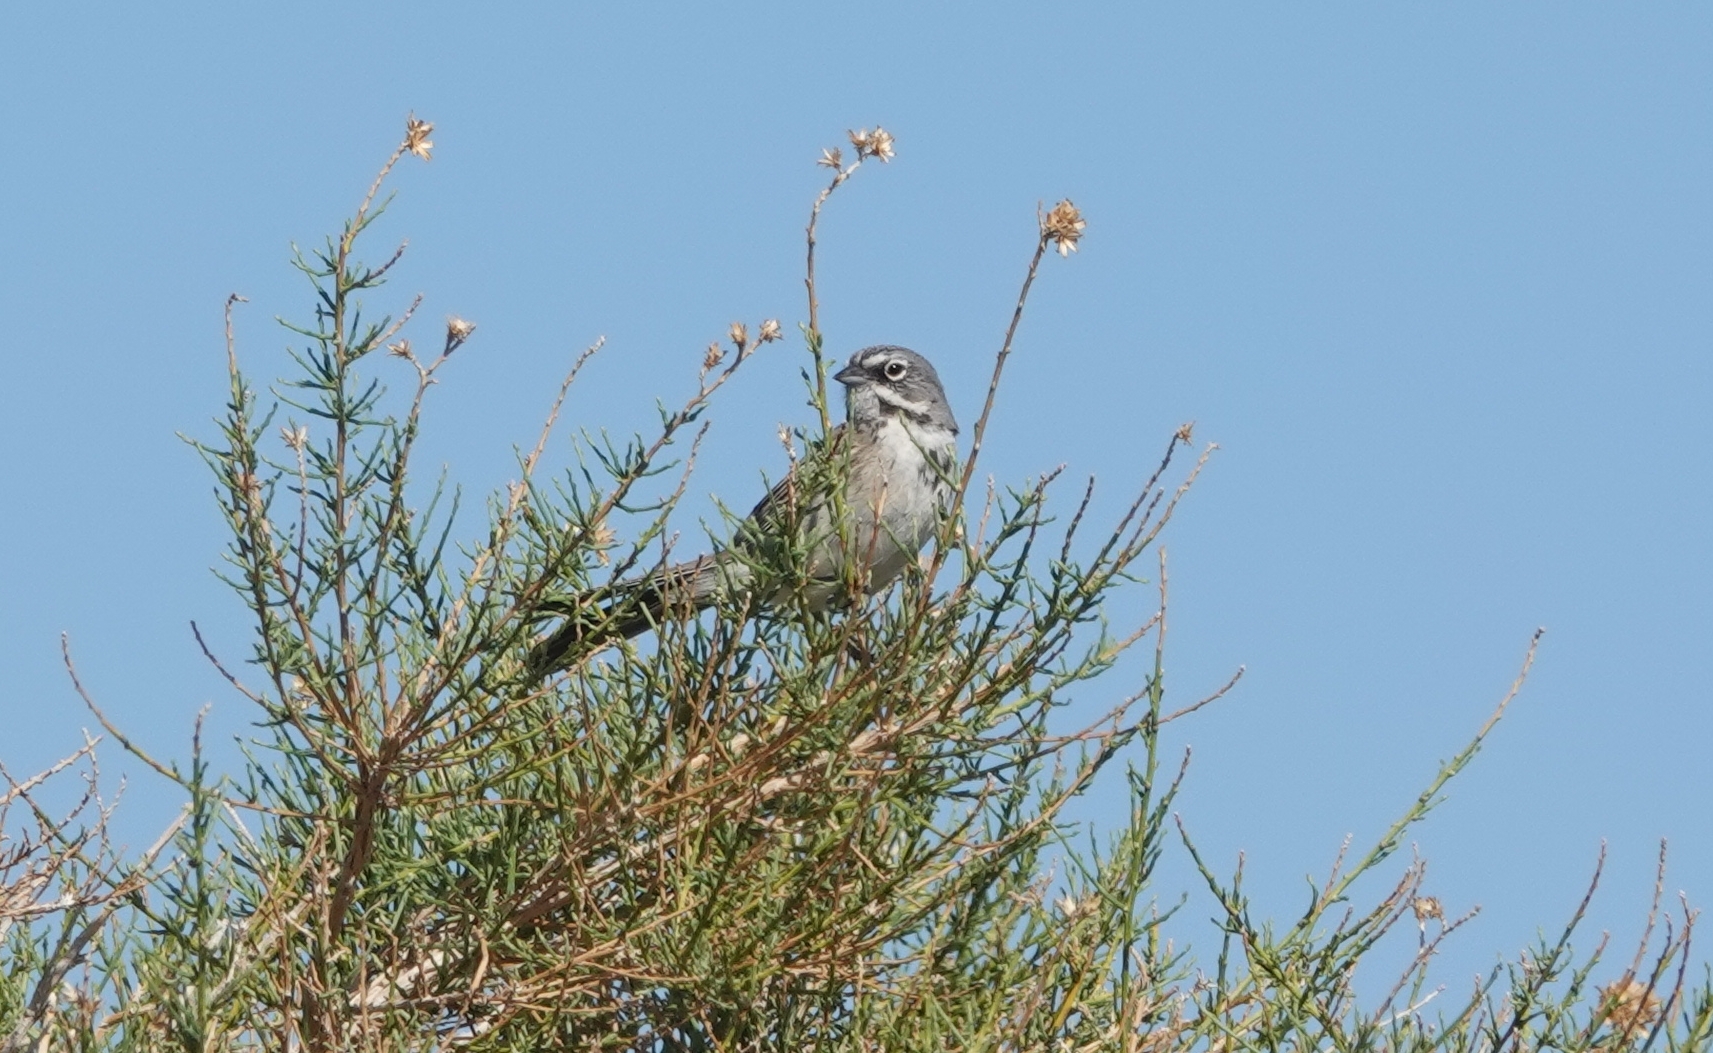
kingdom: Animalia
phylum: Chordata
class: Aves
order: Passeriformes
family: Passerellidae
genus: Artemisiospiza
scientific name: Artemisiospiza belli
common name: Bell's sparrow
